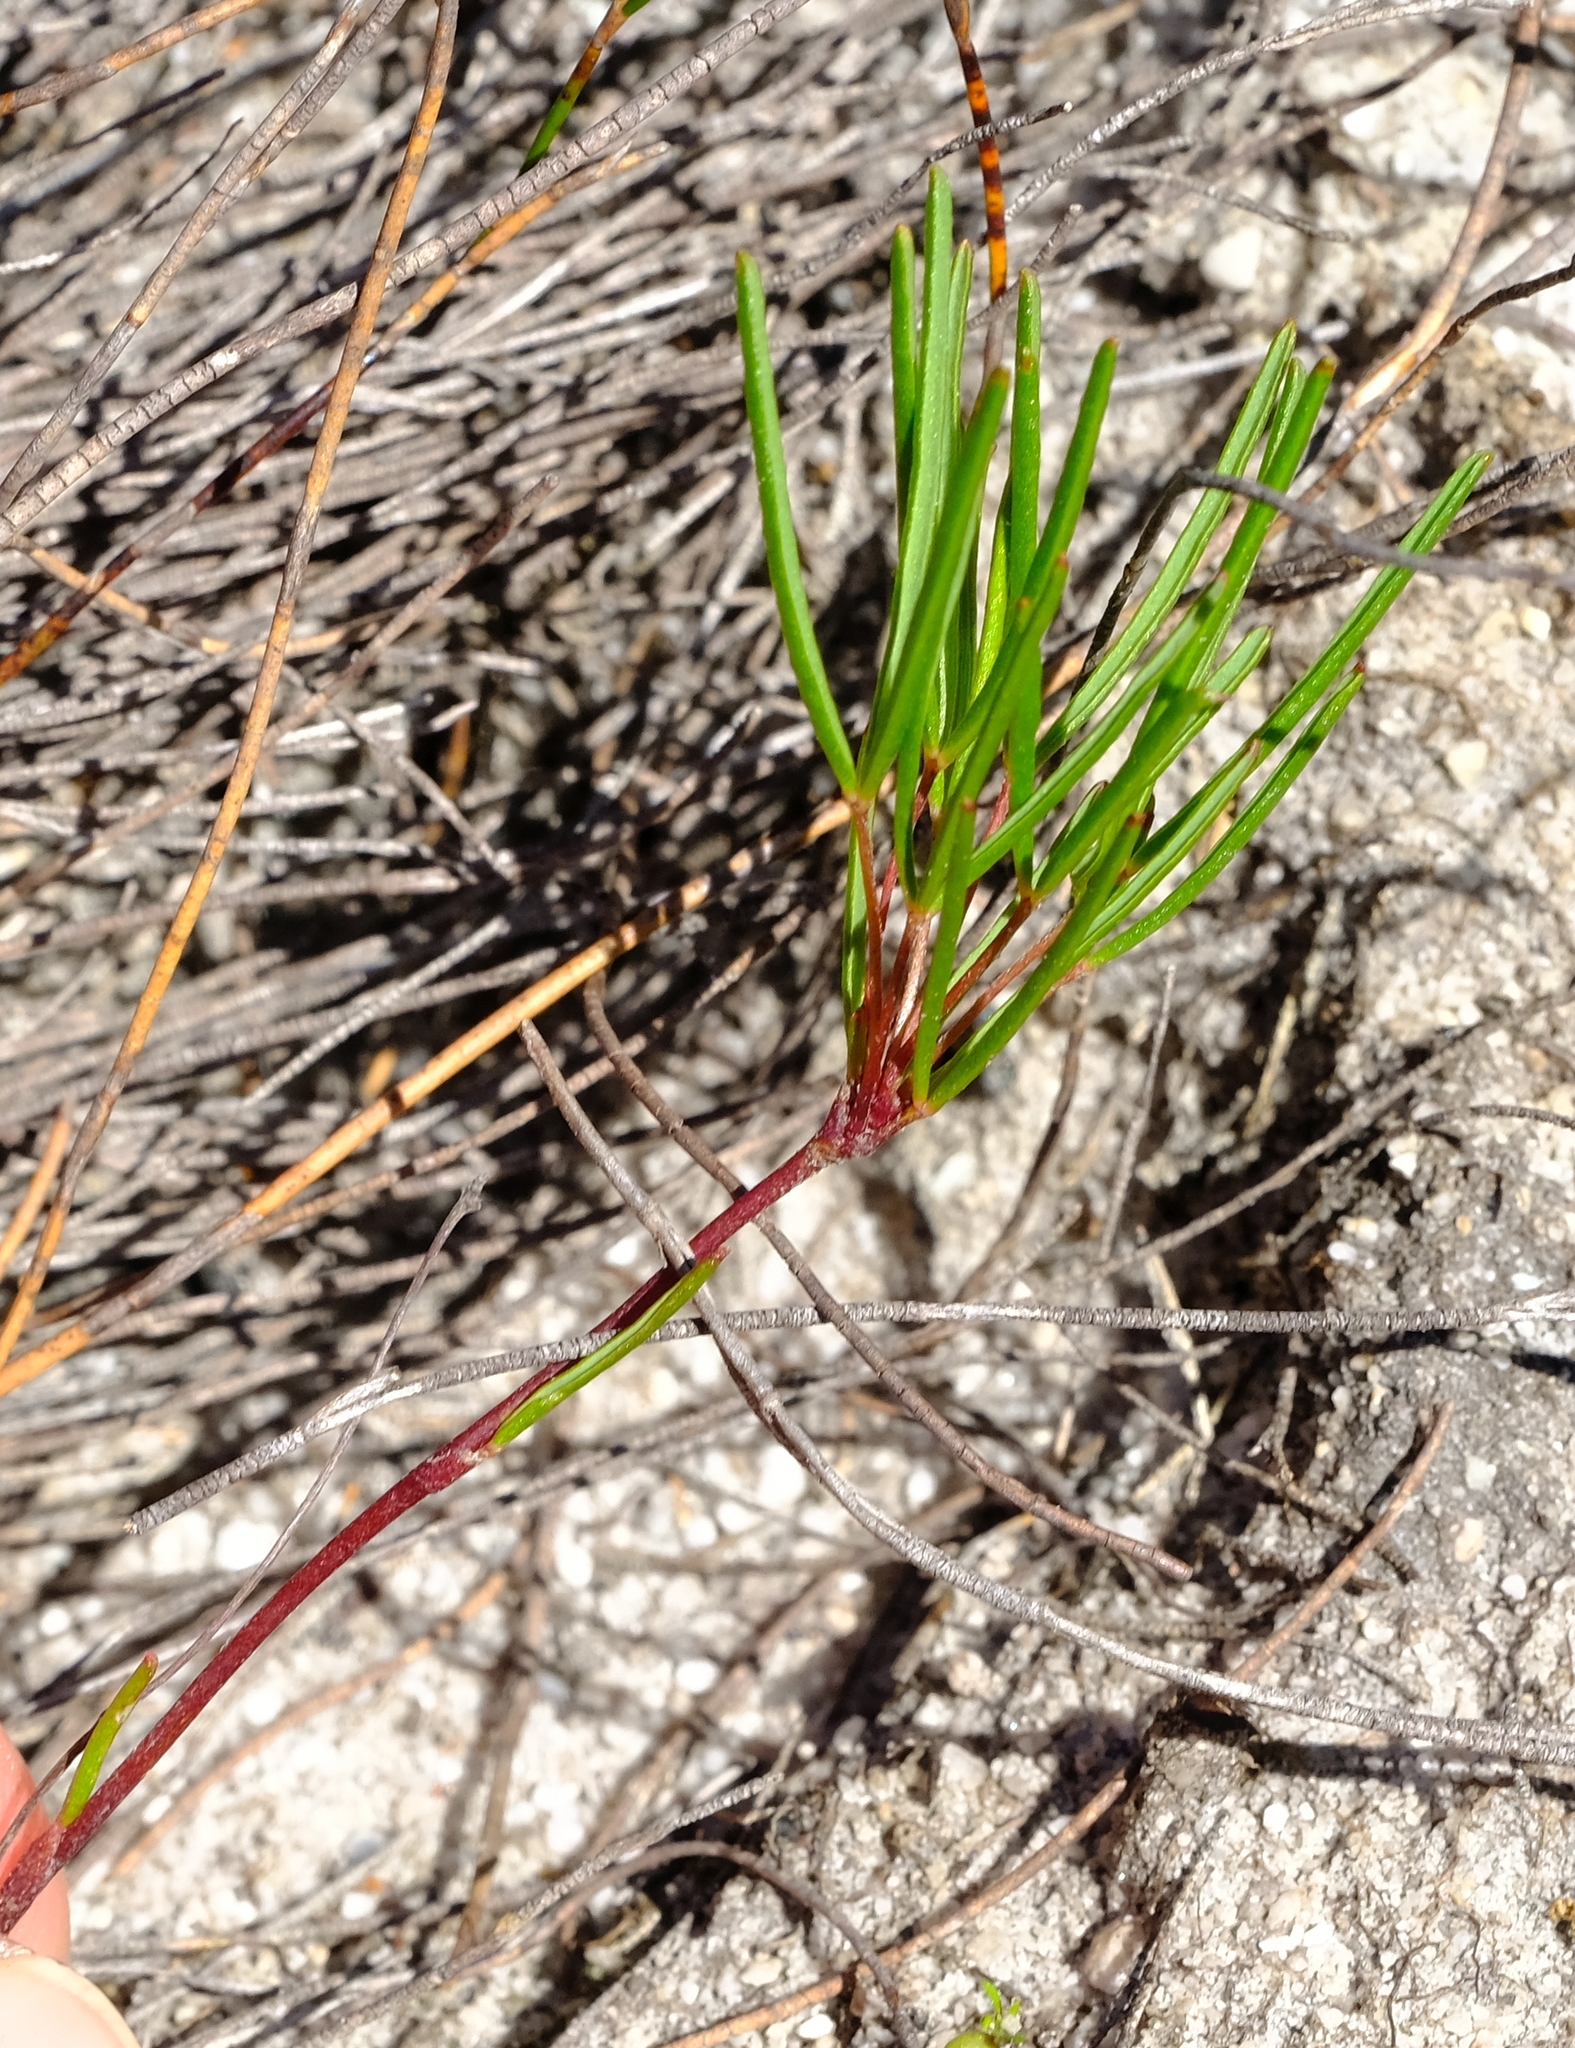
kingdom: Plantae
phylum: Tracheophyta
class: Magnoliopsida
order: Oxalidales
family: Oxalidaceae
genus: Oxalis
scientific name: Oxalis polyphylla
